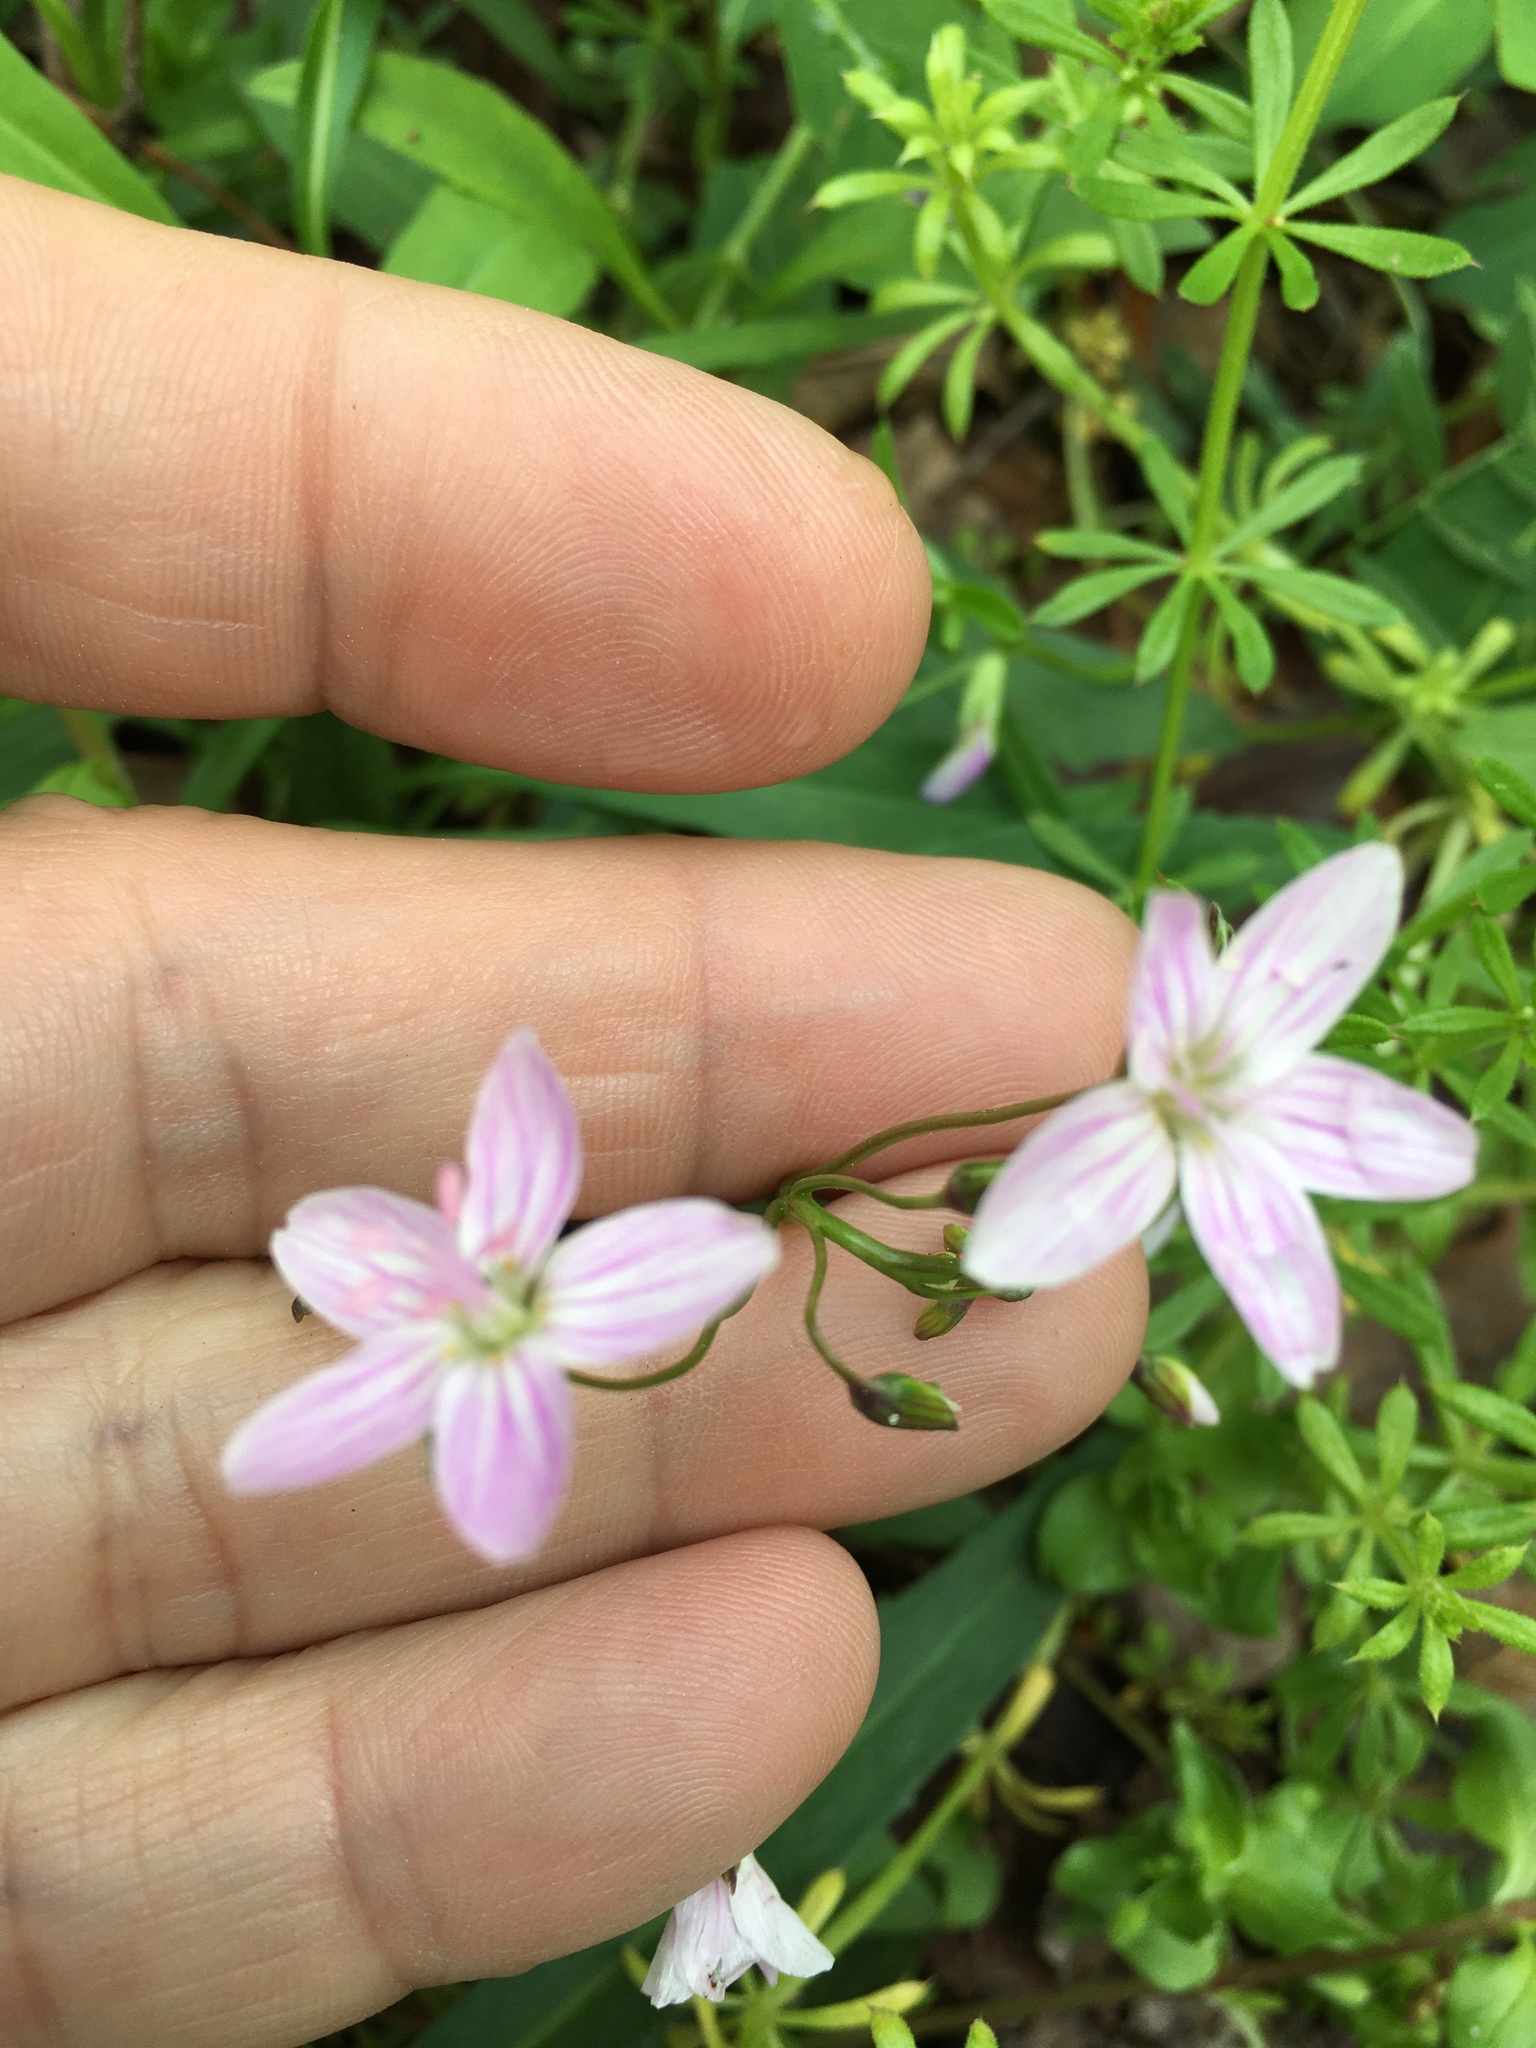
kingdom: Plantae
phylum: Tracheophyta
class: Magnoliopsida
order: Caryophyllales
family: Montiaceae
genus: Claytonia
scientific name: Claytonia virginica
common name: Virginia springbeauty
